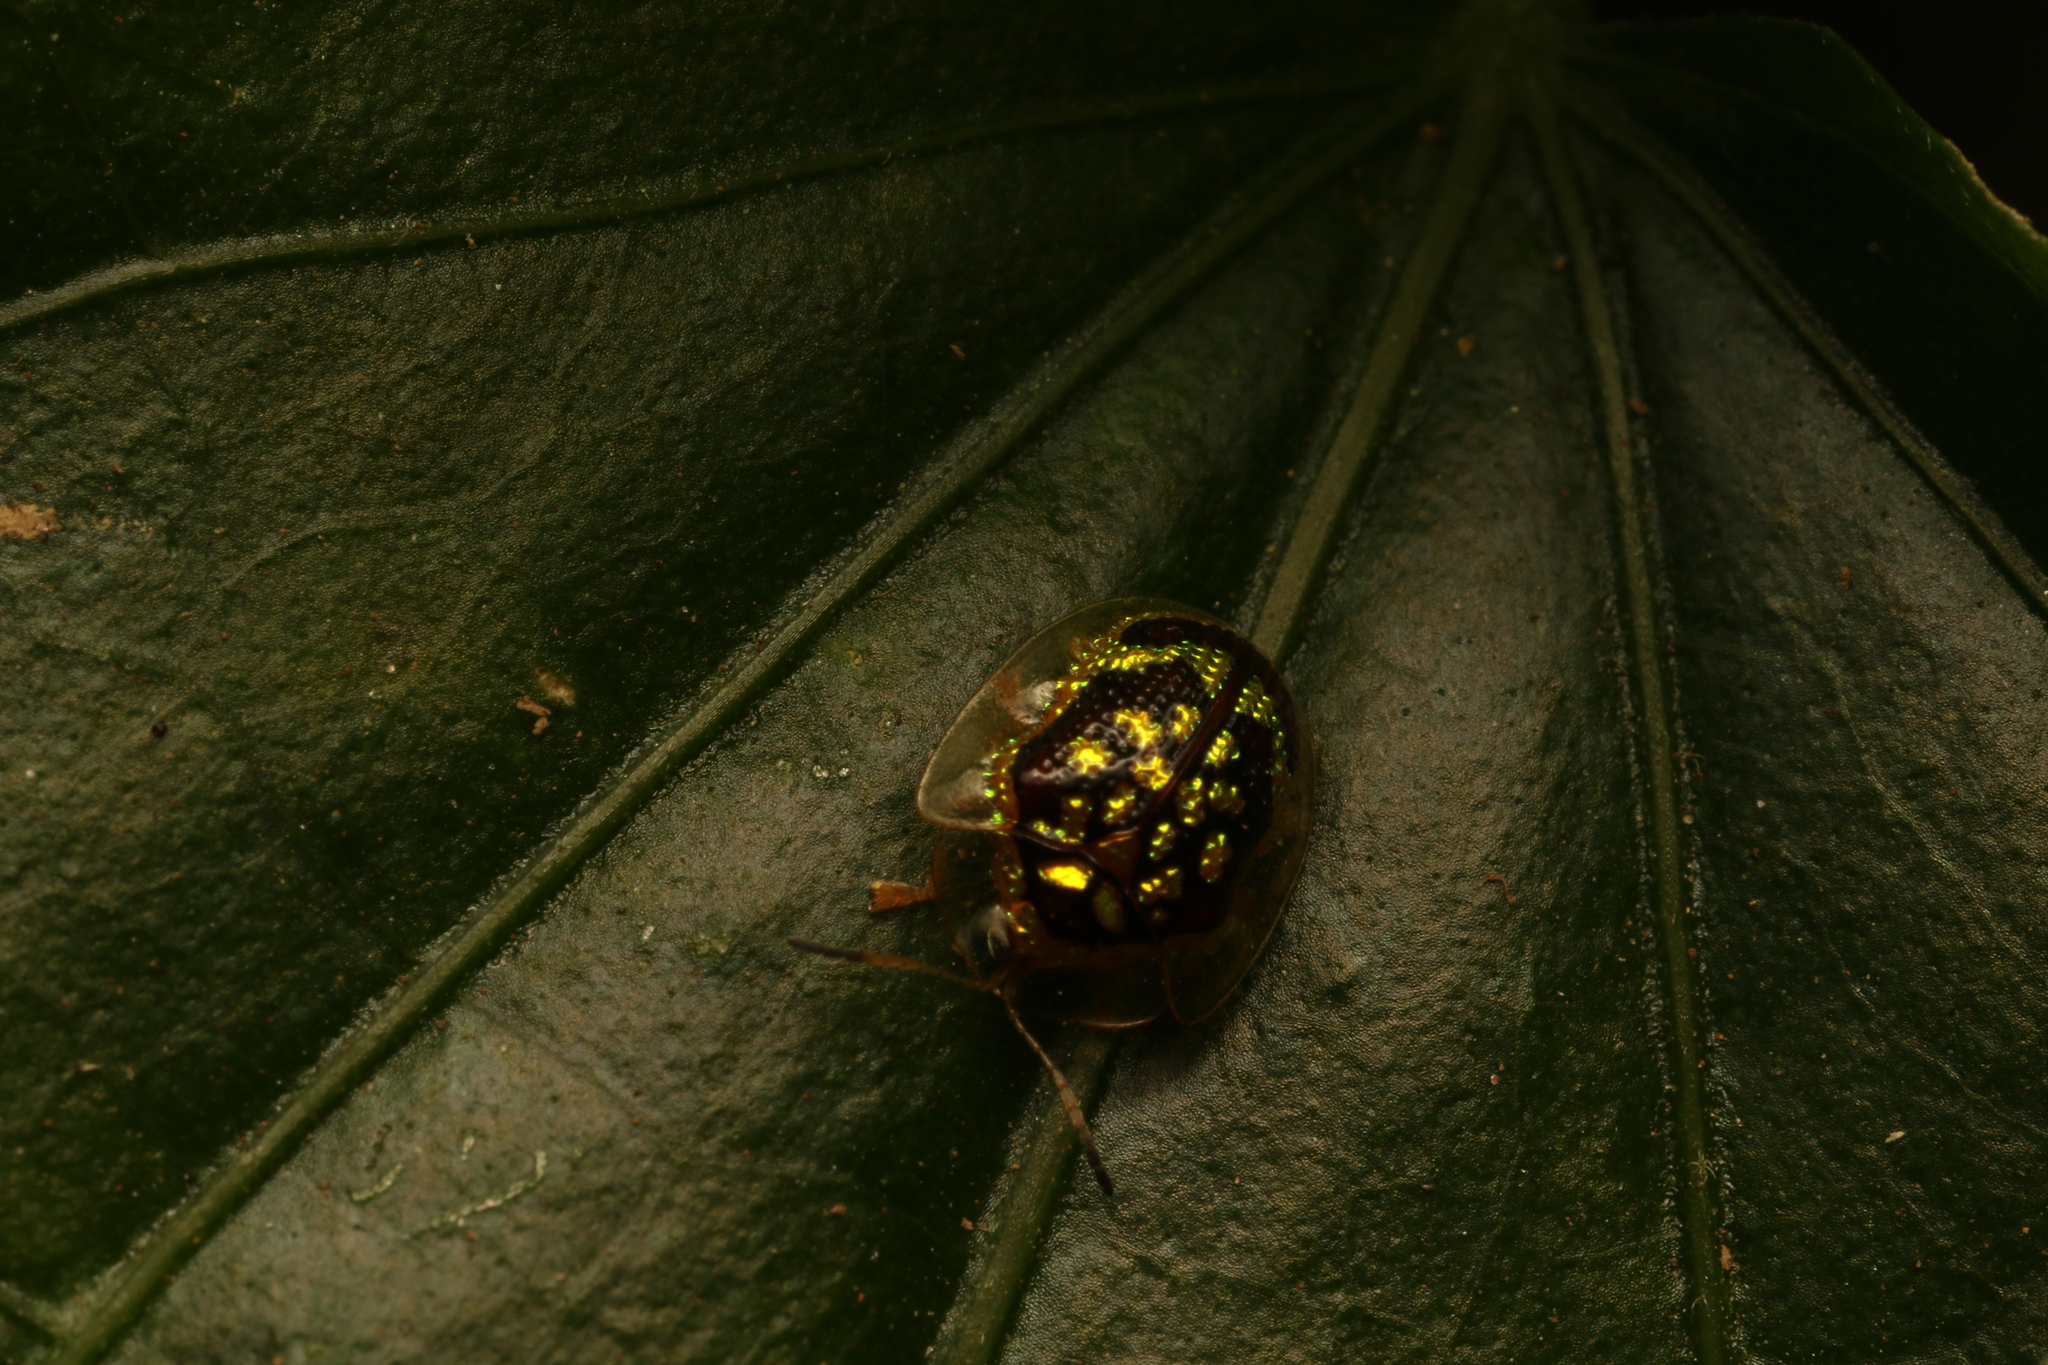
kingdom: Animalia
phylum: Arthropoda
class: Insecta
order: Coleoptera
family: Chrysomelidae
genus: Microctenochira
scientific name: Microctenochira brasiliensis
